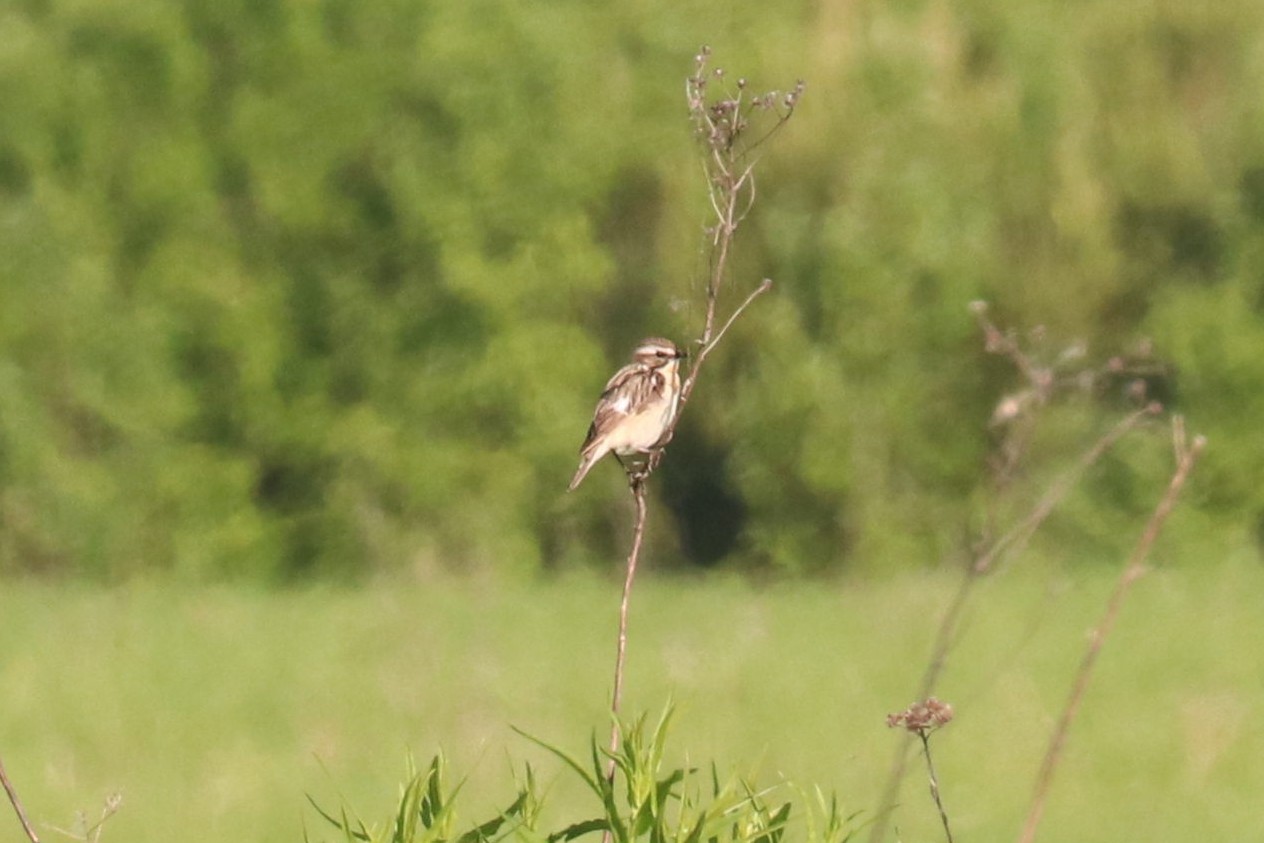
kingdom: Animalia
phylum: Chordata
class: Aves
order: Passeriformes
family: Muscicapidae
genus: Saxicola
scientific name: Saxicola rubetra
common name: Whinchat
